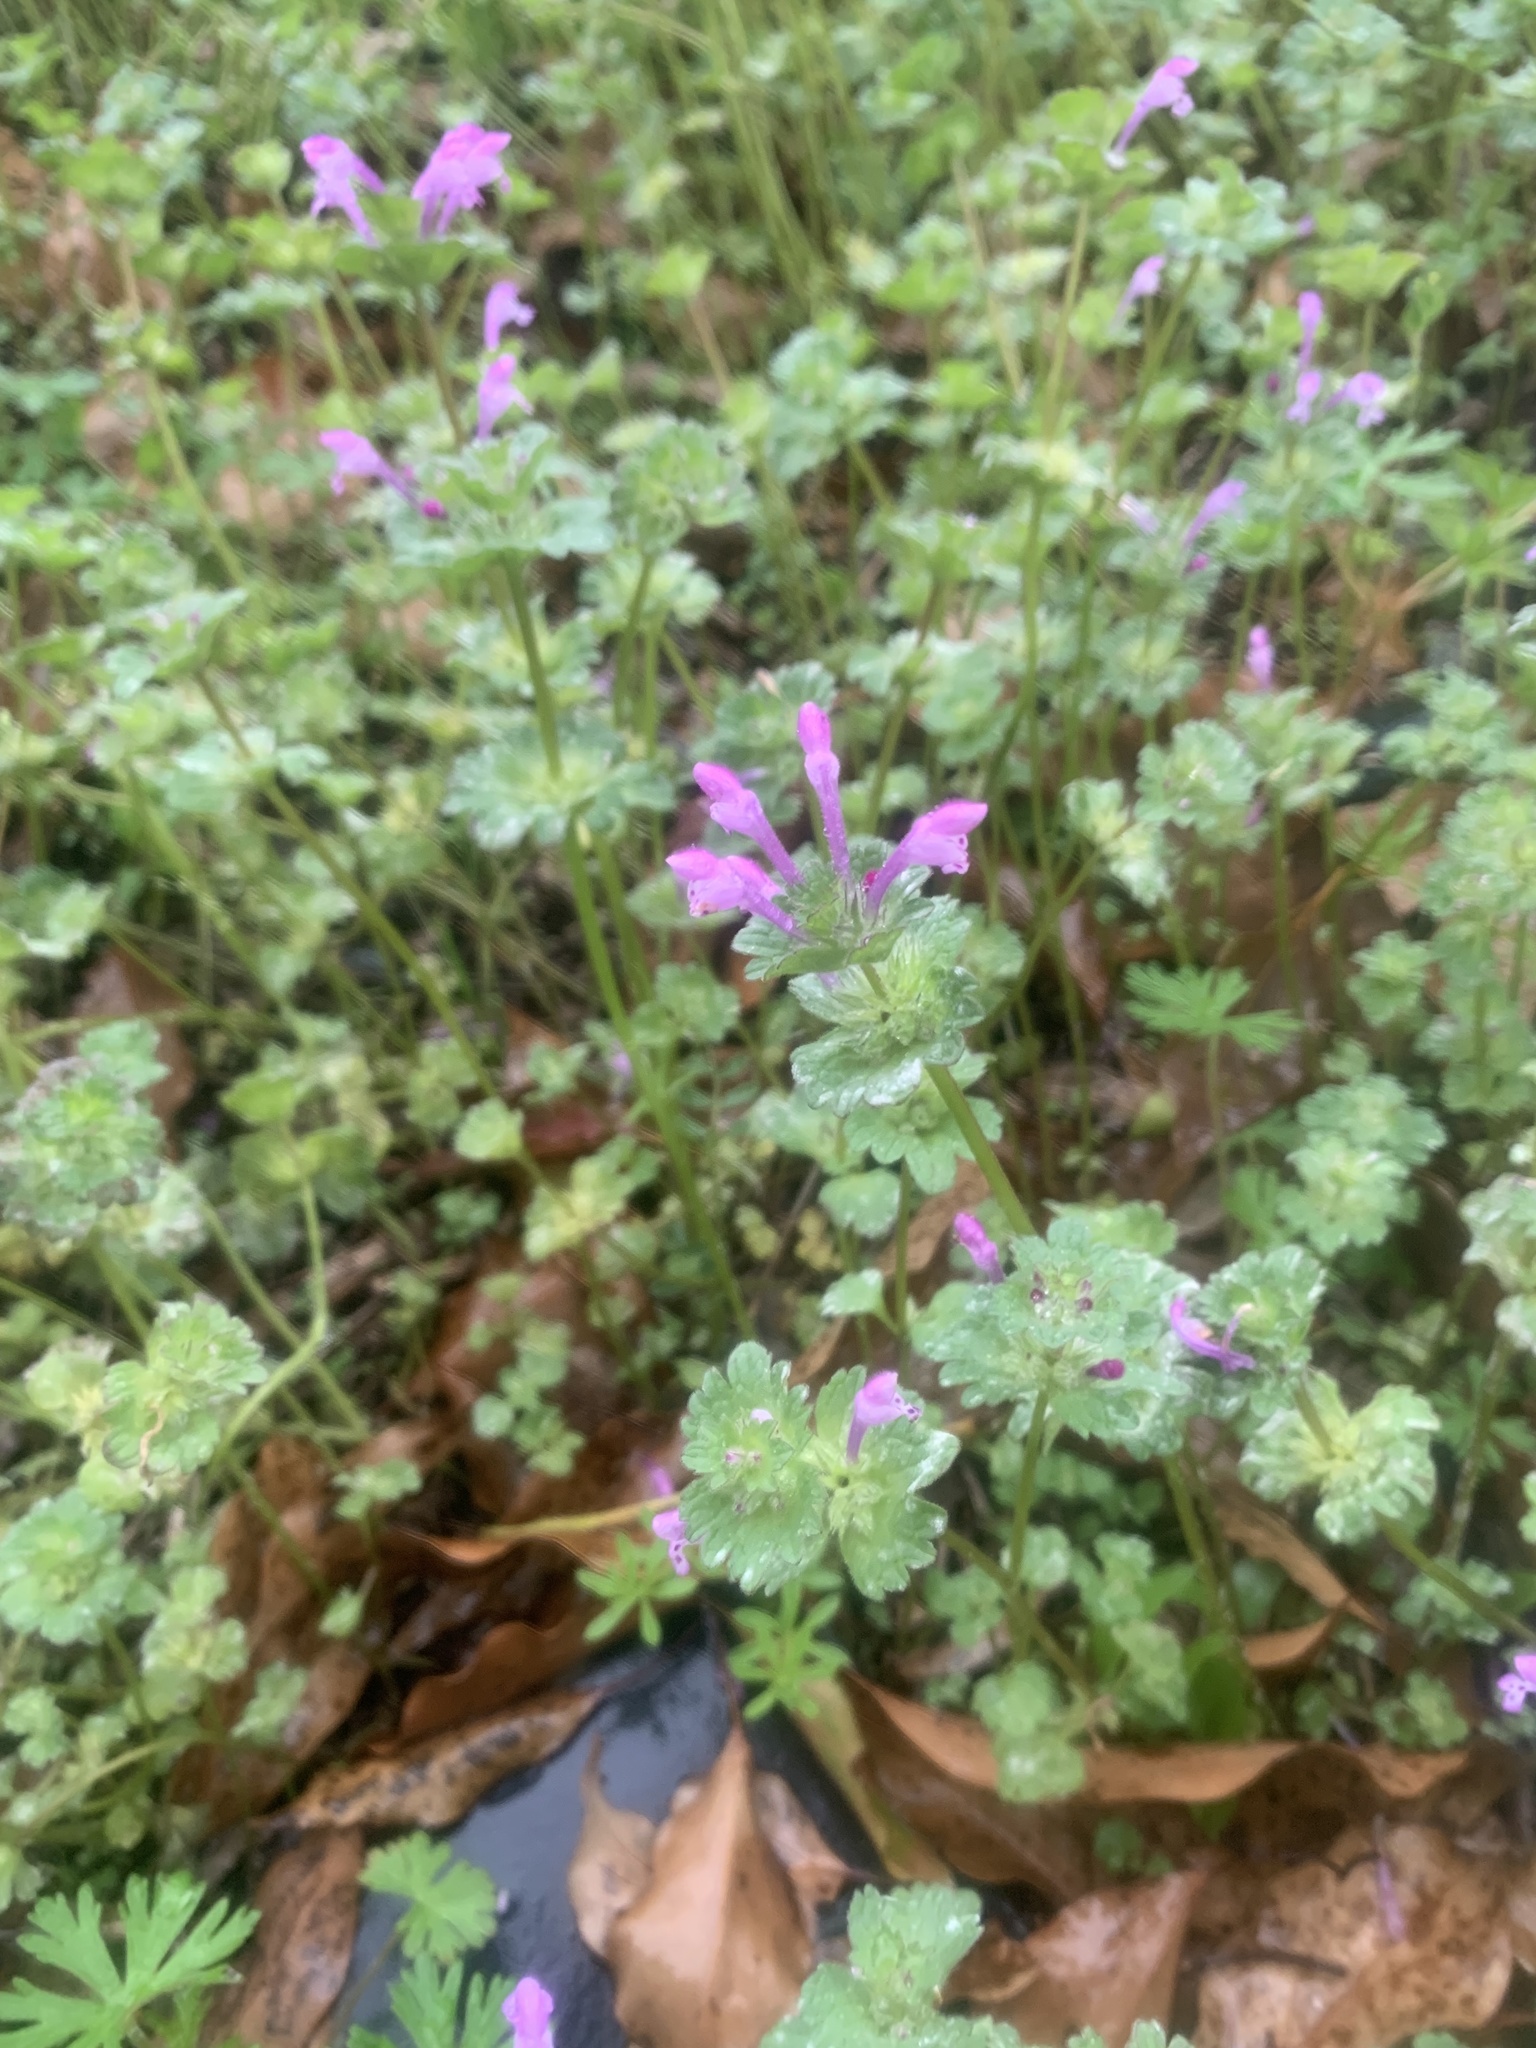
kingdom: Plantae
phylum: Tracheophyta
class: Magnoliopsida
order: Lamiales
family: Lamiaceae
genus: Lamium
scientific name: Lamium amplexicaule
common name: Henbit dead-nettle
